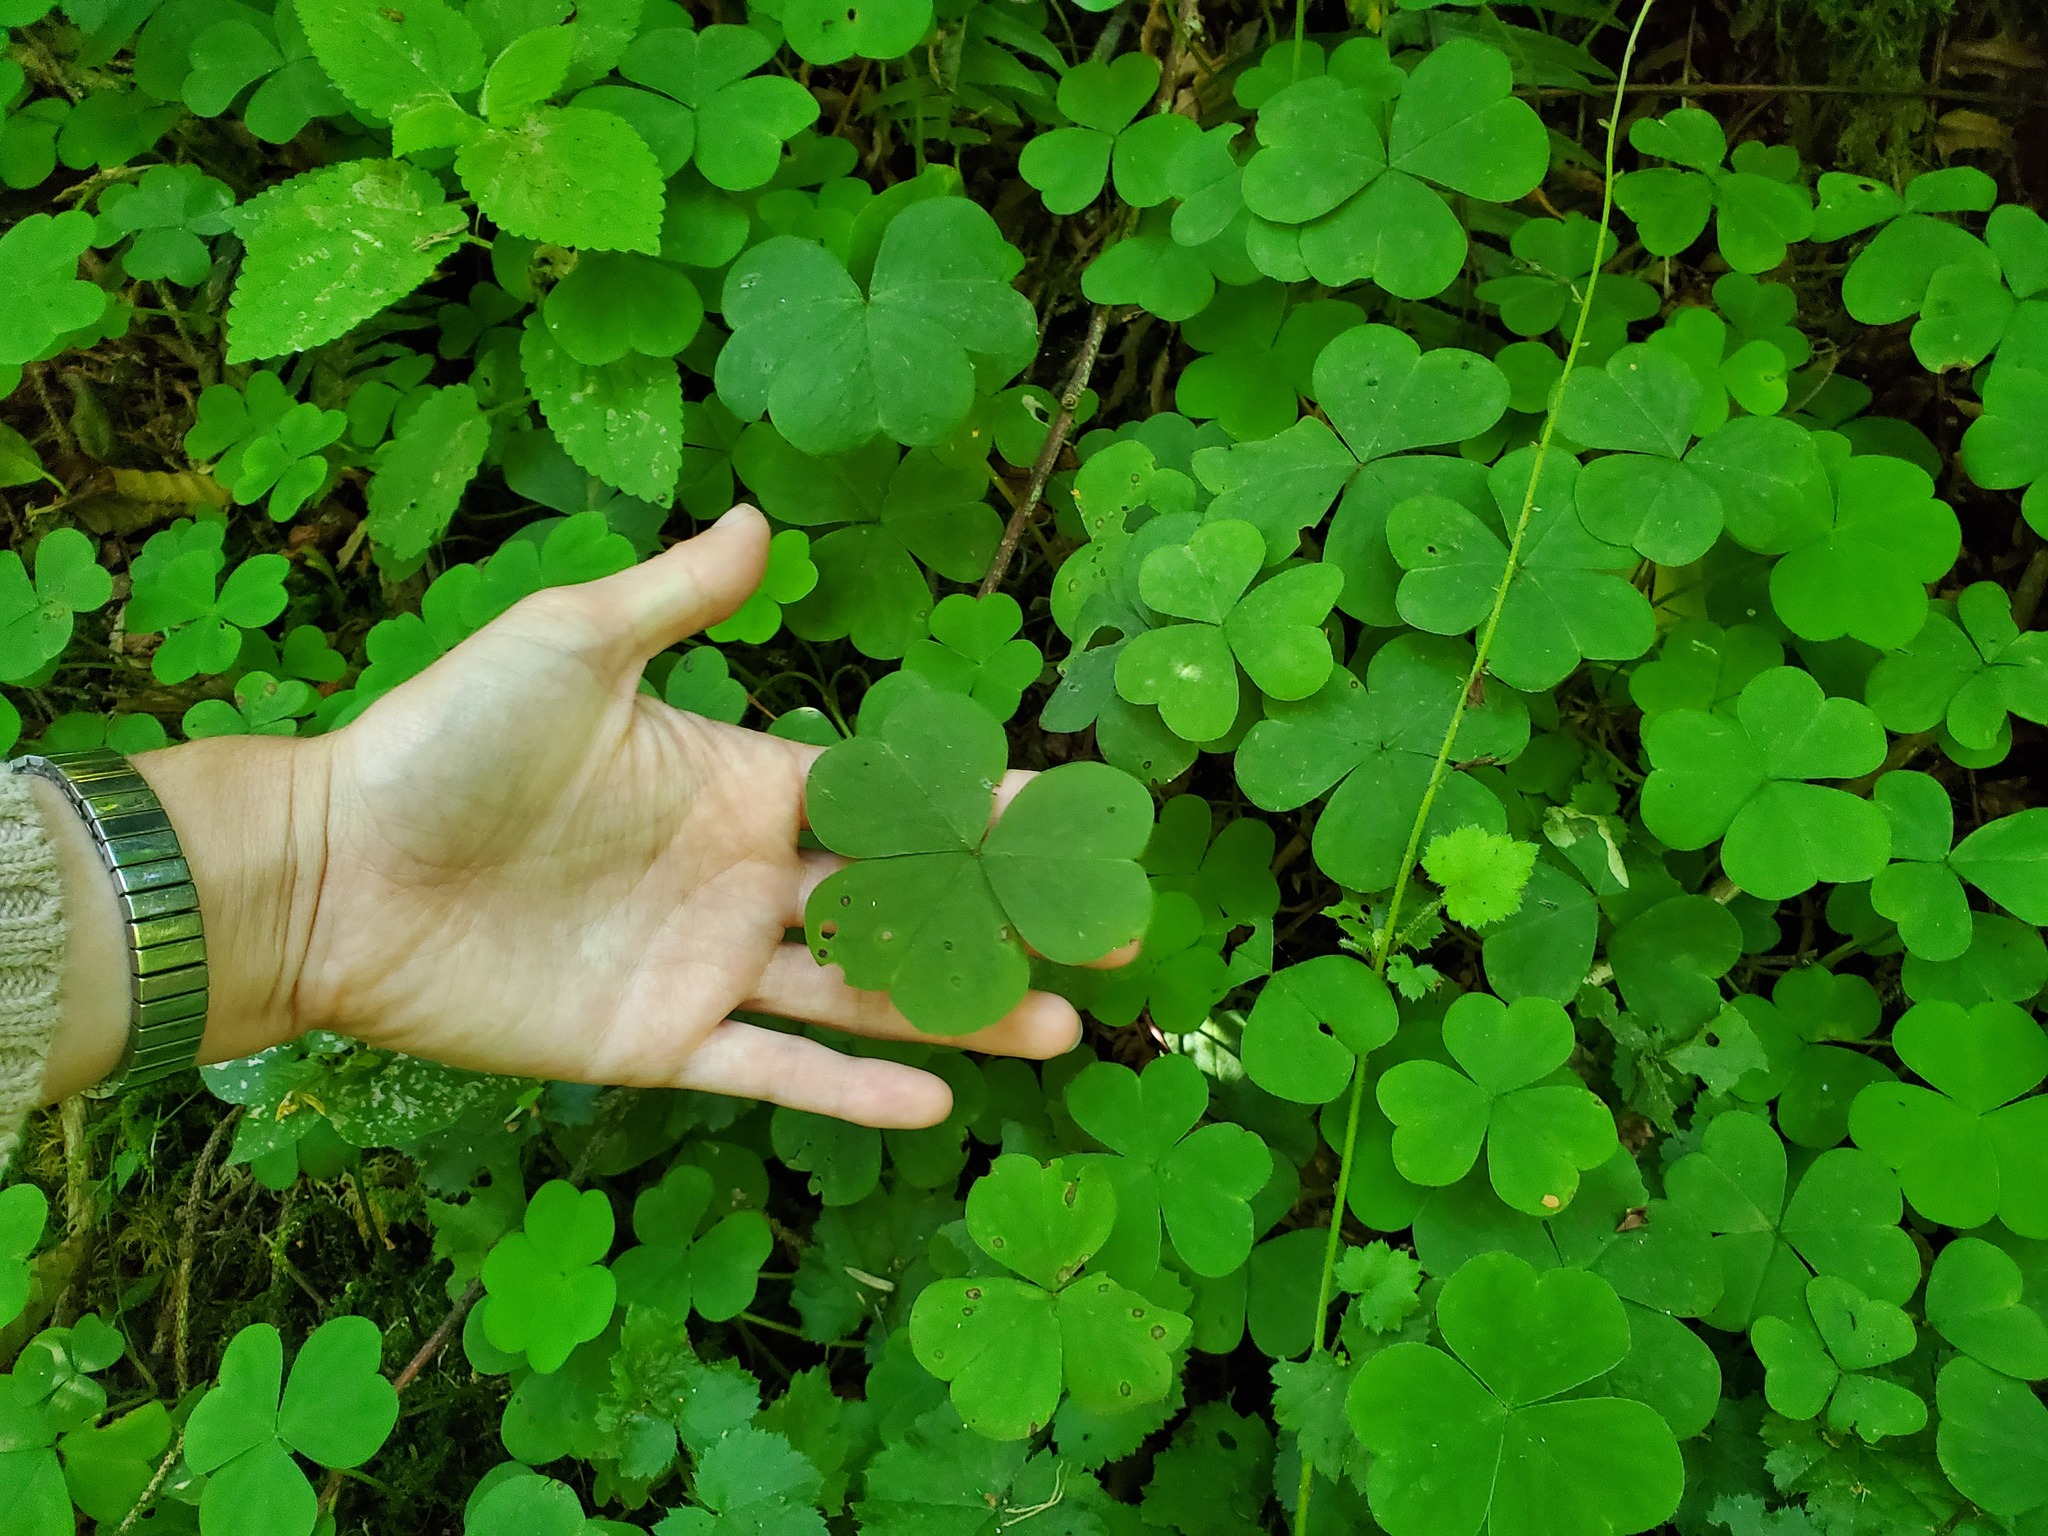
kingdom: Plantae
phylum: Tracheophyta
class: Magnoliopsida
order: Oxalidales
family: Oxalidaceae
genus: Oxalis
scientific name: Oxalis oregana
